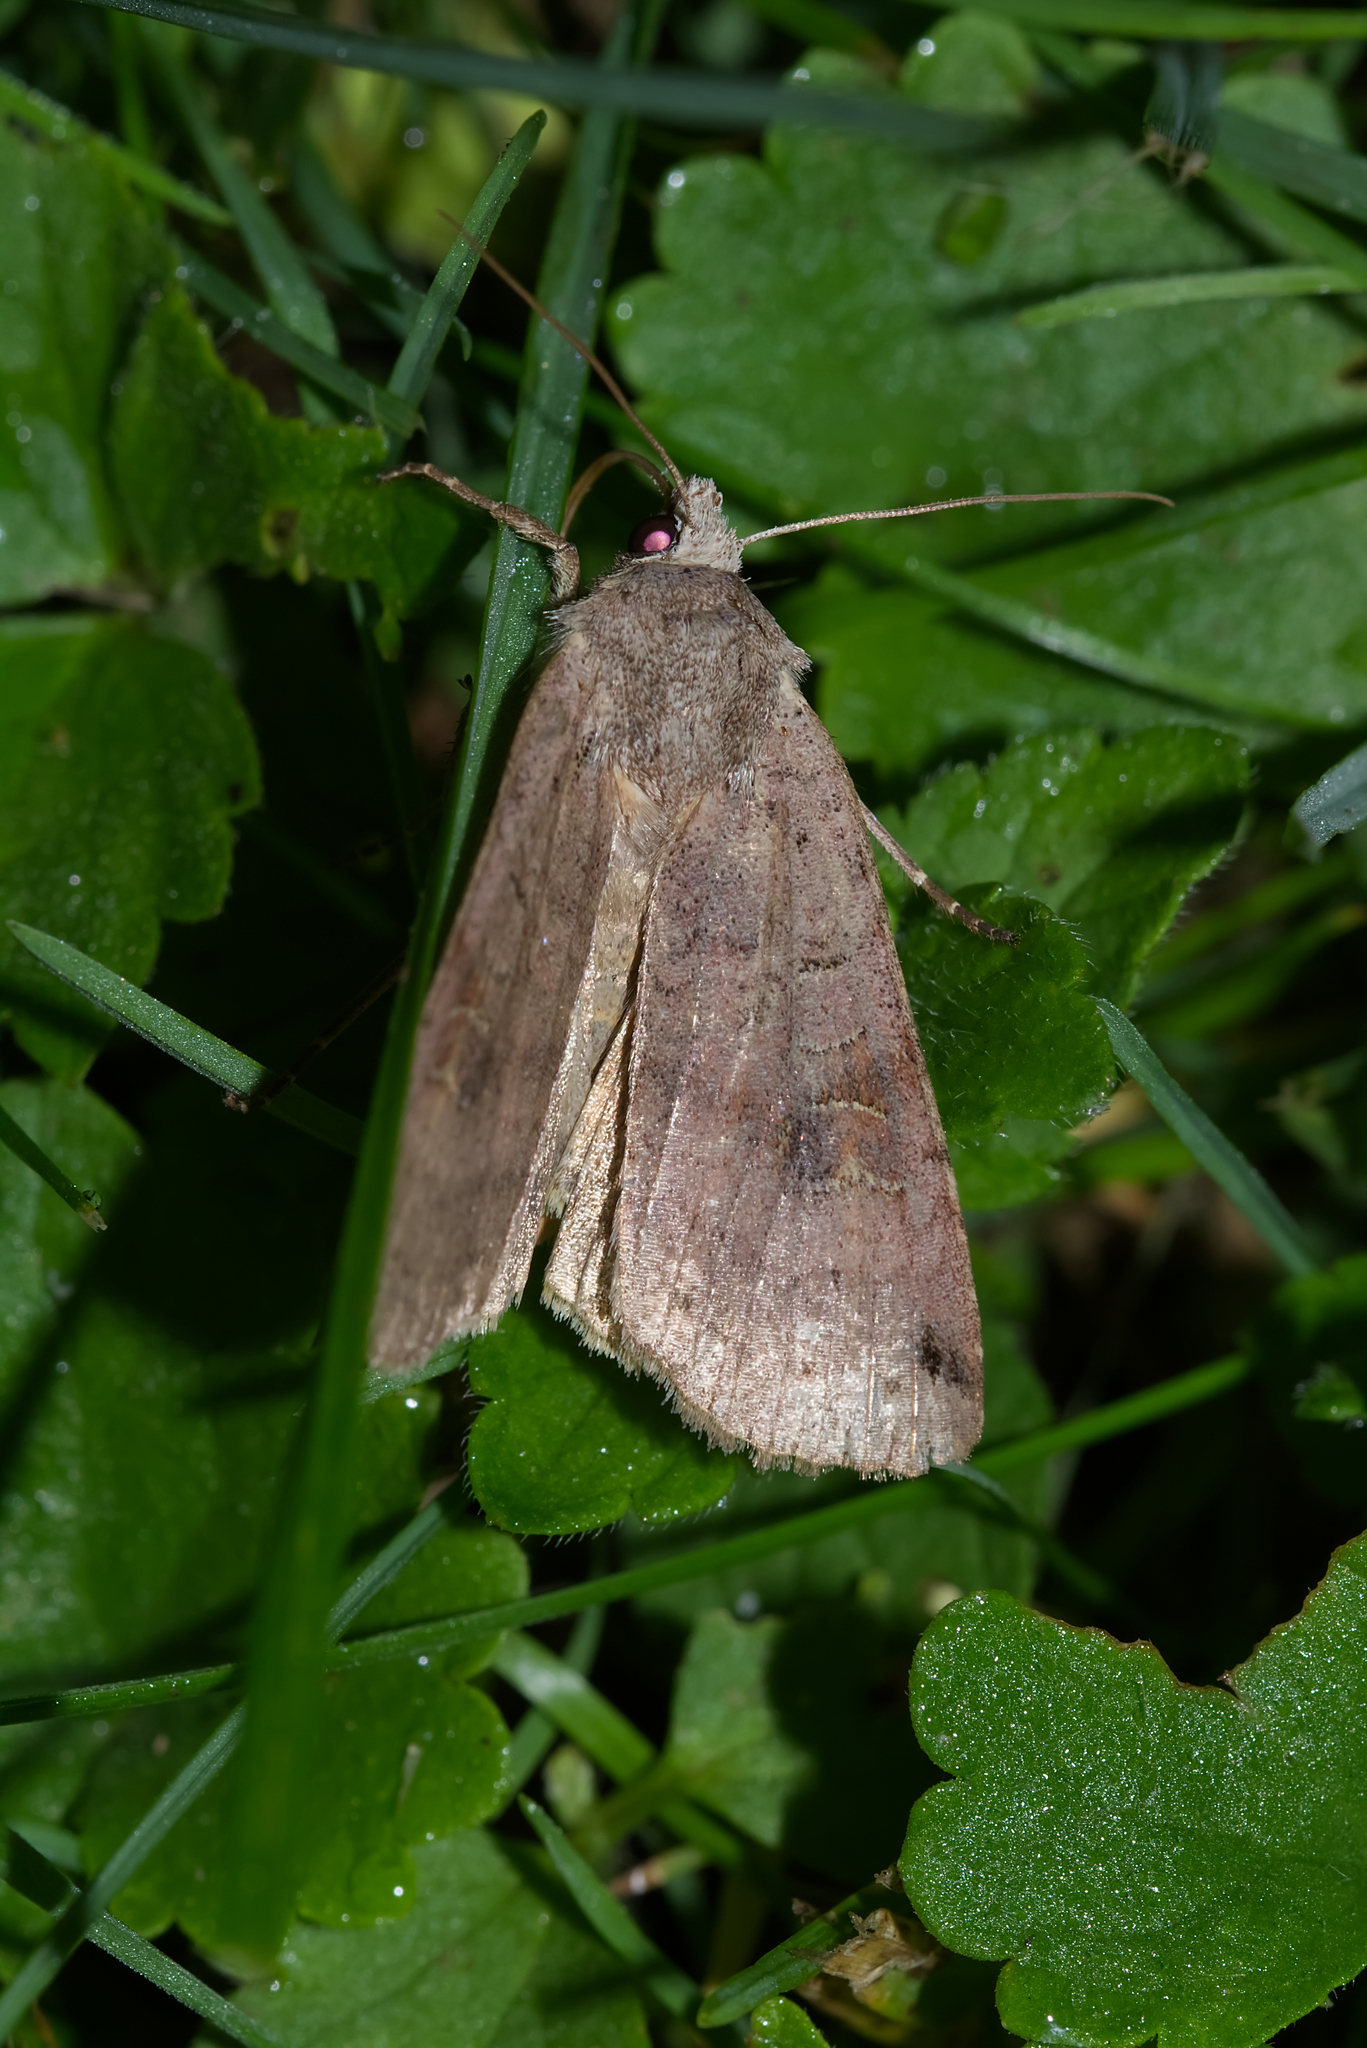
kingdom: Animalia
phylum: Arthropoda
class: Insecta
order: Lepidoptera
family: Noctuidae
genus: Xestia
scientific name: Xestia baja
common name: Dotted clay
